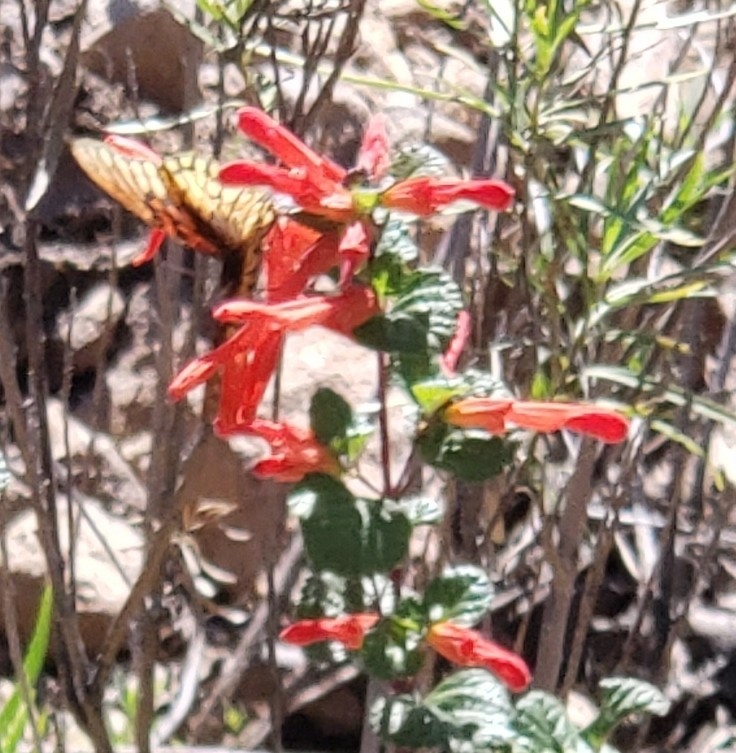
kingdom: Animalia
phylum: Arthropoda
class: Insecta
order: Lepidoptera
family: Nymphalidae
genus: Dione
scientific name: Dione moneta
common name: Mexican silverspot
